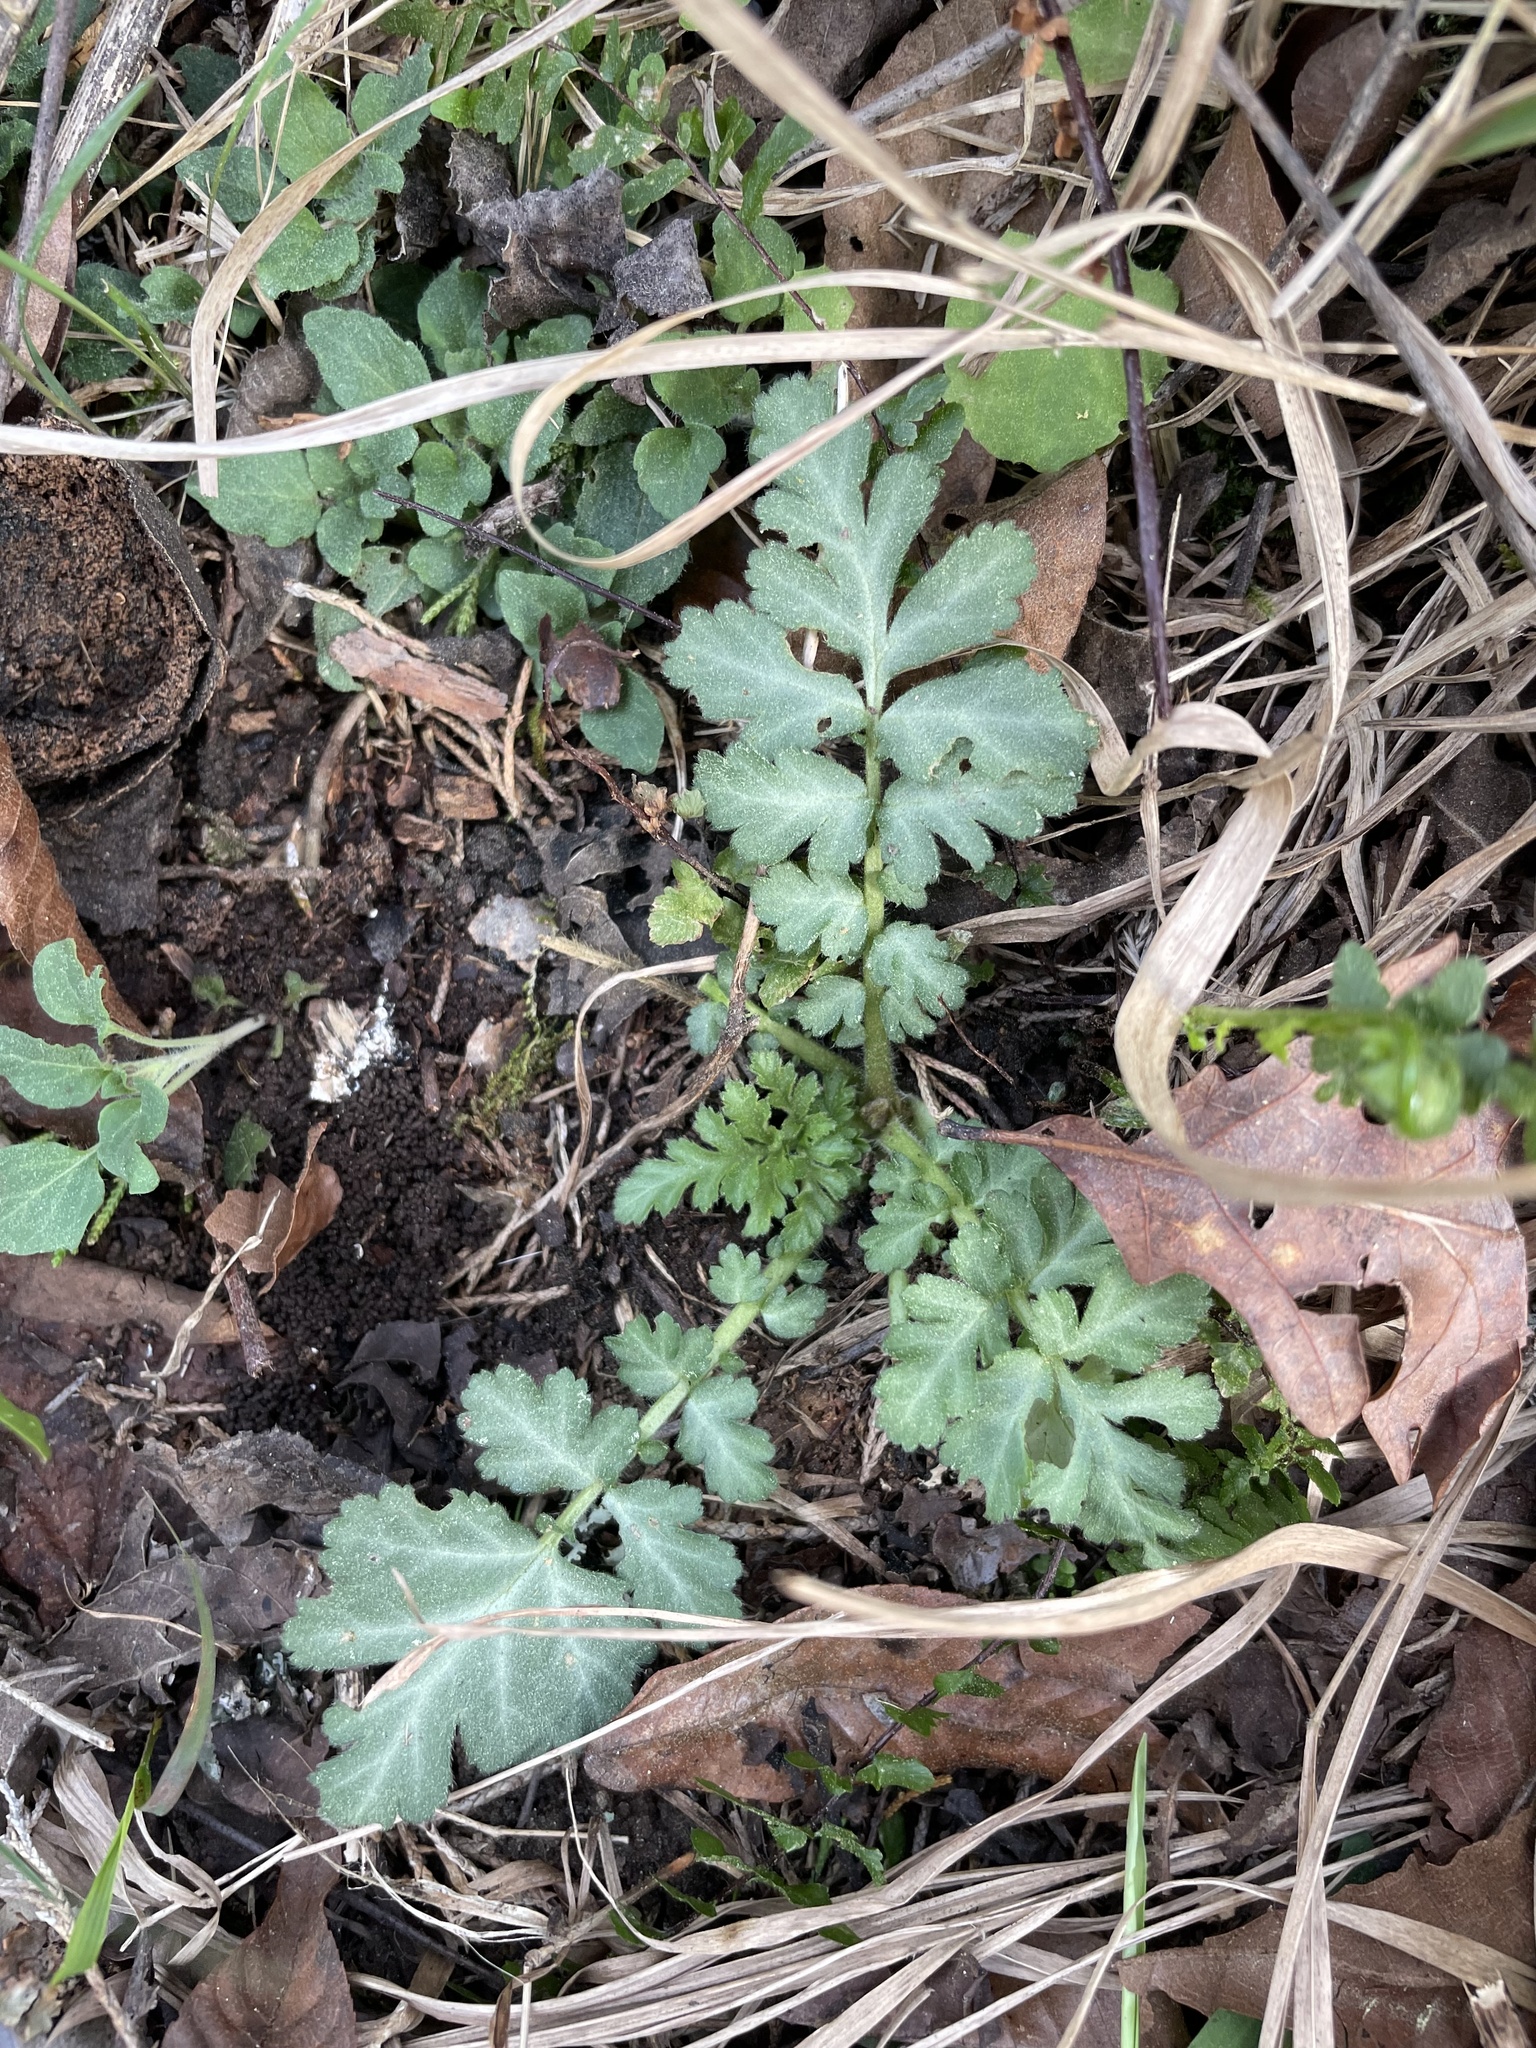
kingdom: Plantae
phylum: Tracheophyta
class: Magnoliopsida
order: Rosales
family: Rosaceae
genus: Geum
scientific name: Geum canadense
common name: White avens
